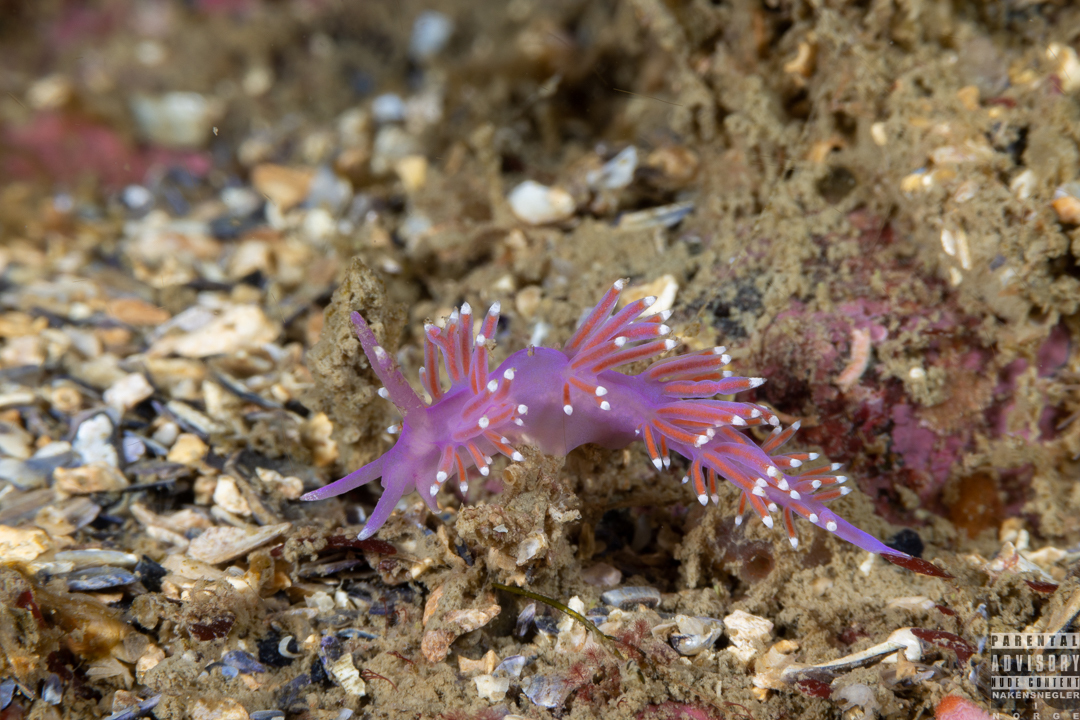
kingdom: Animalia
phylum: Mollusca
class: Gastropoda
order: Nudibranchia
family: Flabellinidae
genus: Edmundsella
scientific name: Edmundsella pedata
